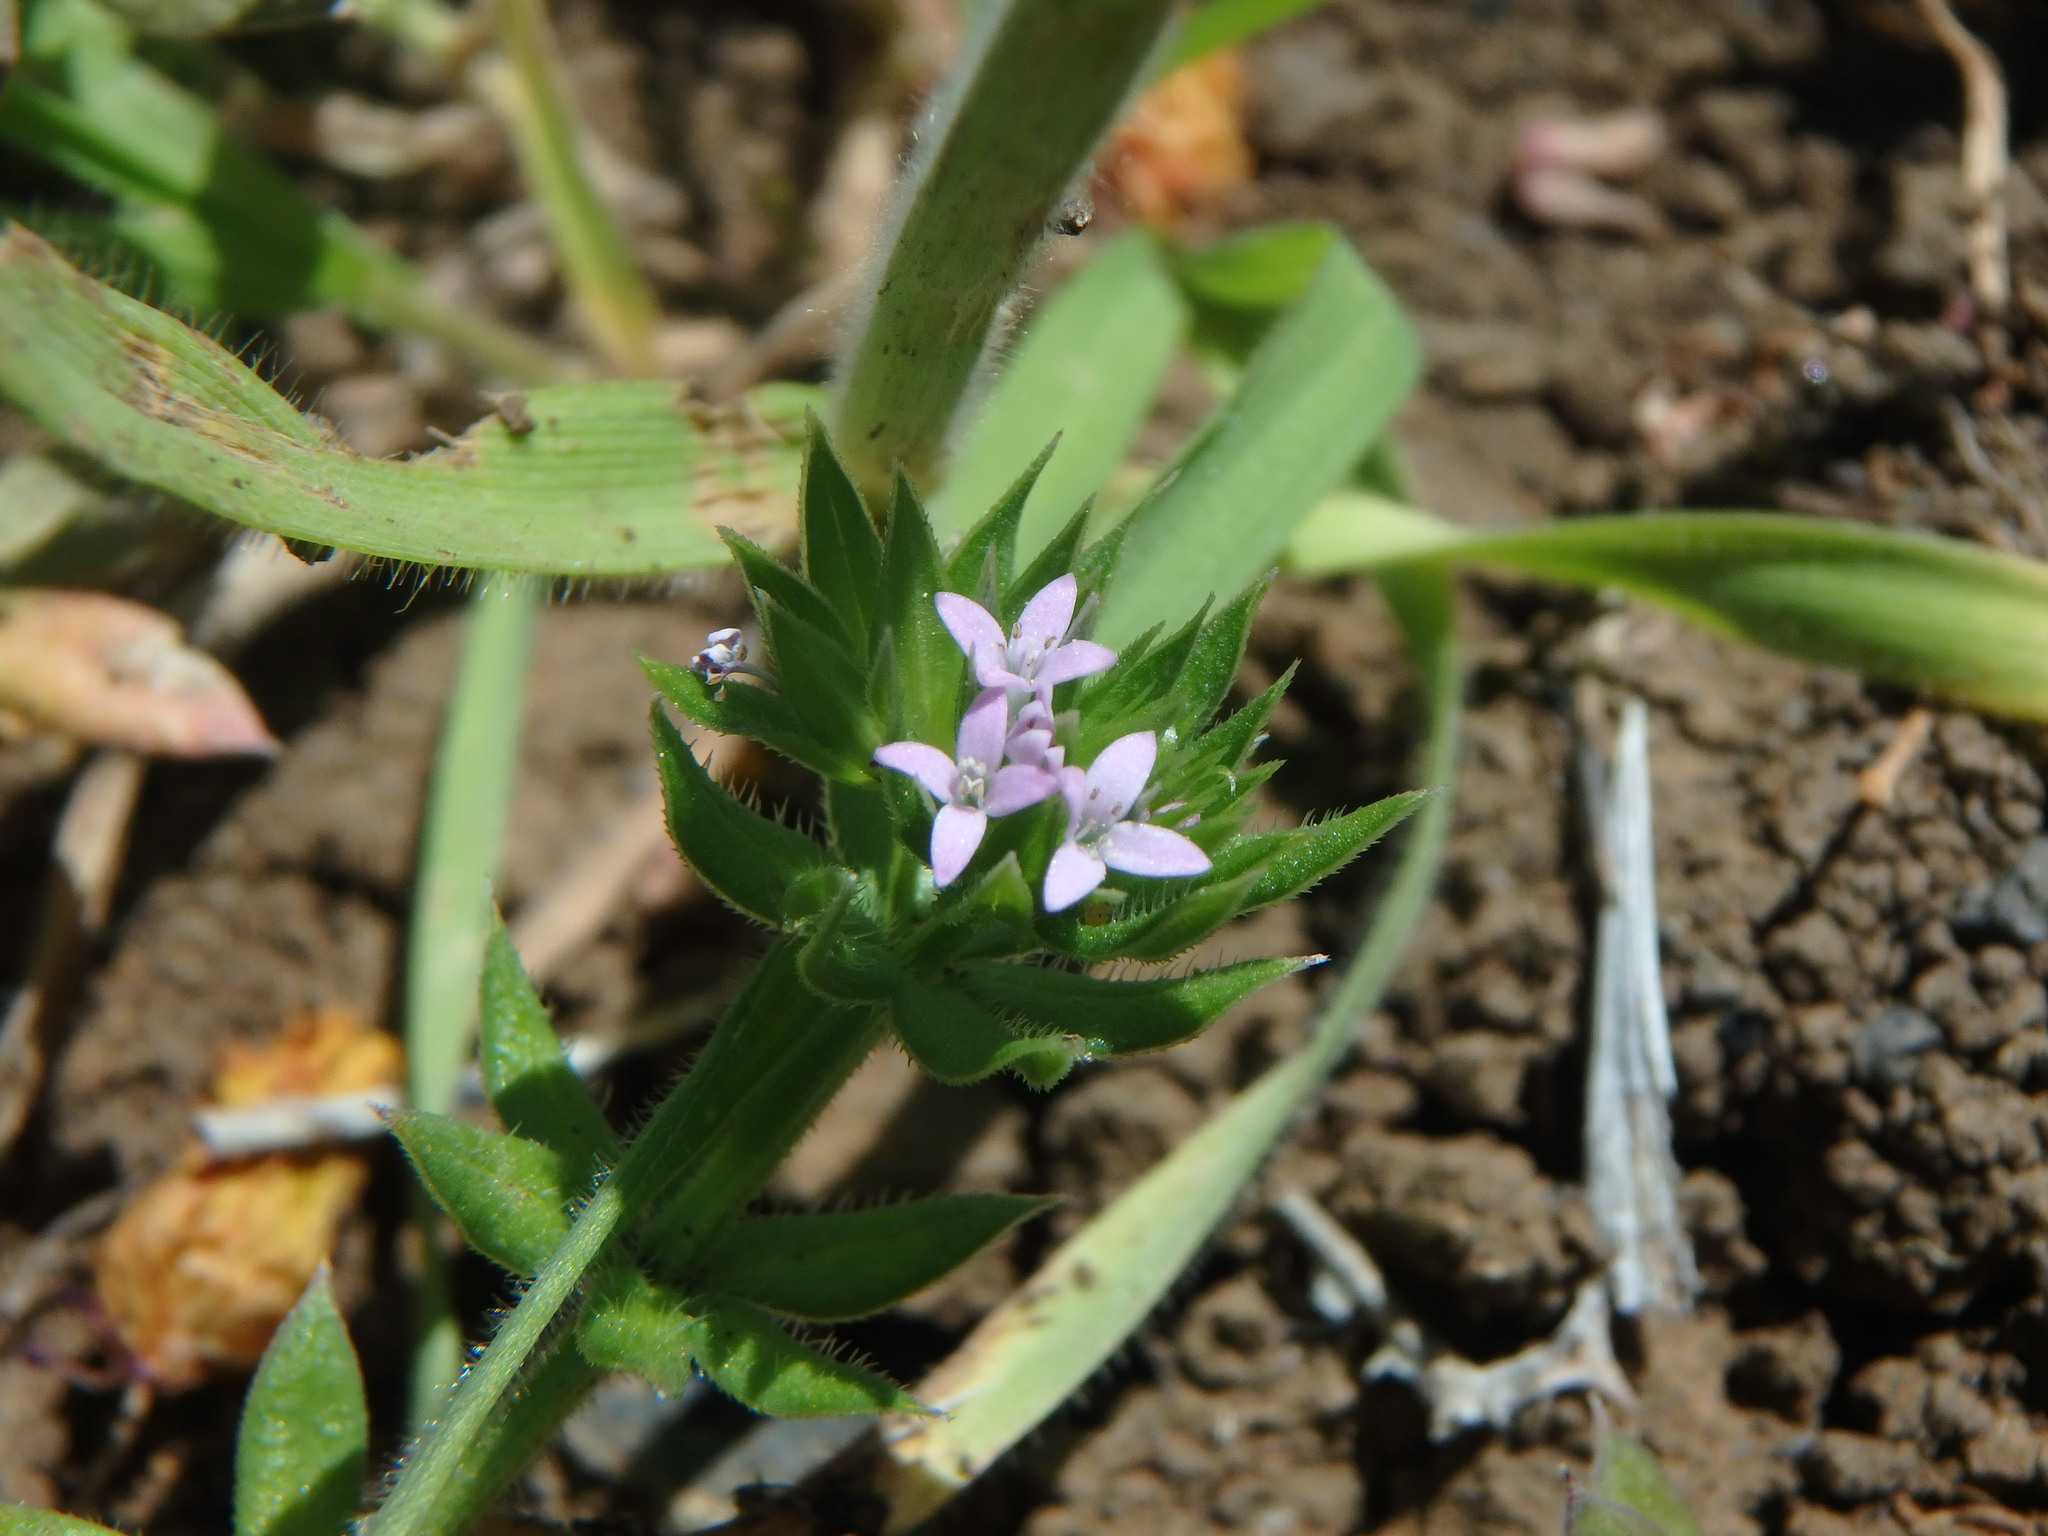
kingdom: Plantae
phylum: Tracheophyta
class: Magnoliopsida
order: Gentianales
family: Rubiaceae
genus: Sherardia
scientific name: Sherardia arvensis
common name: Field madder
